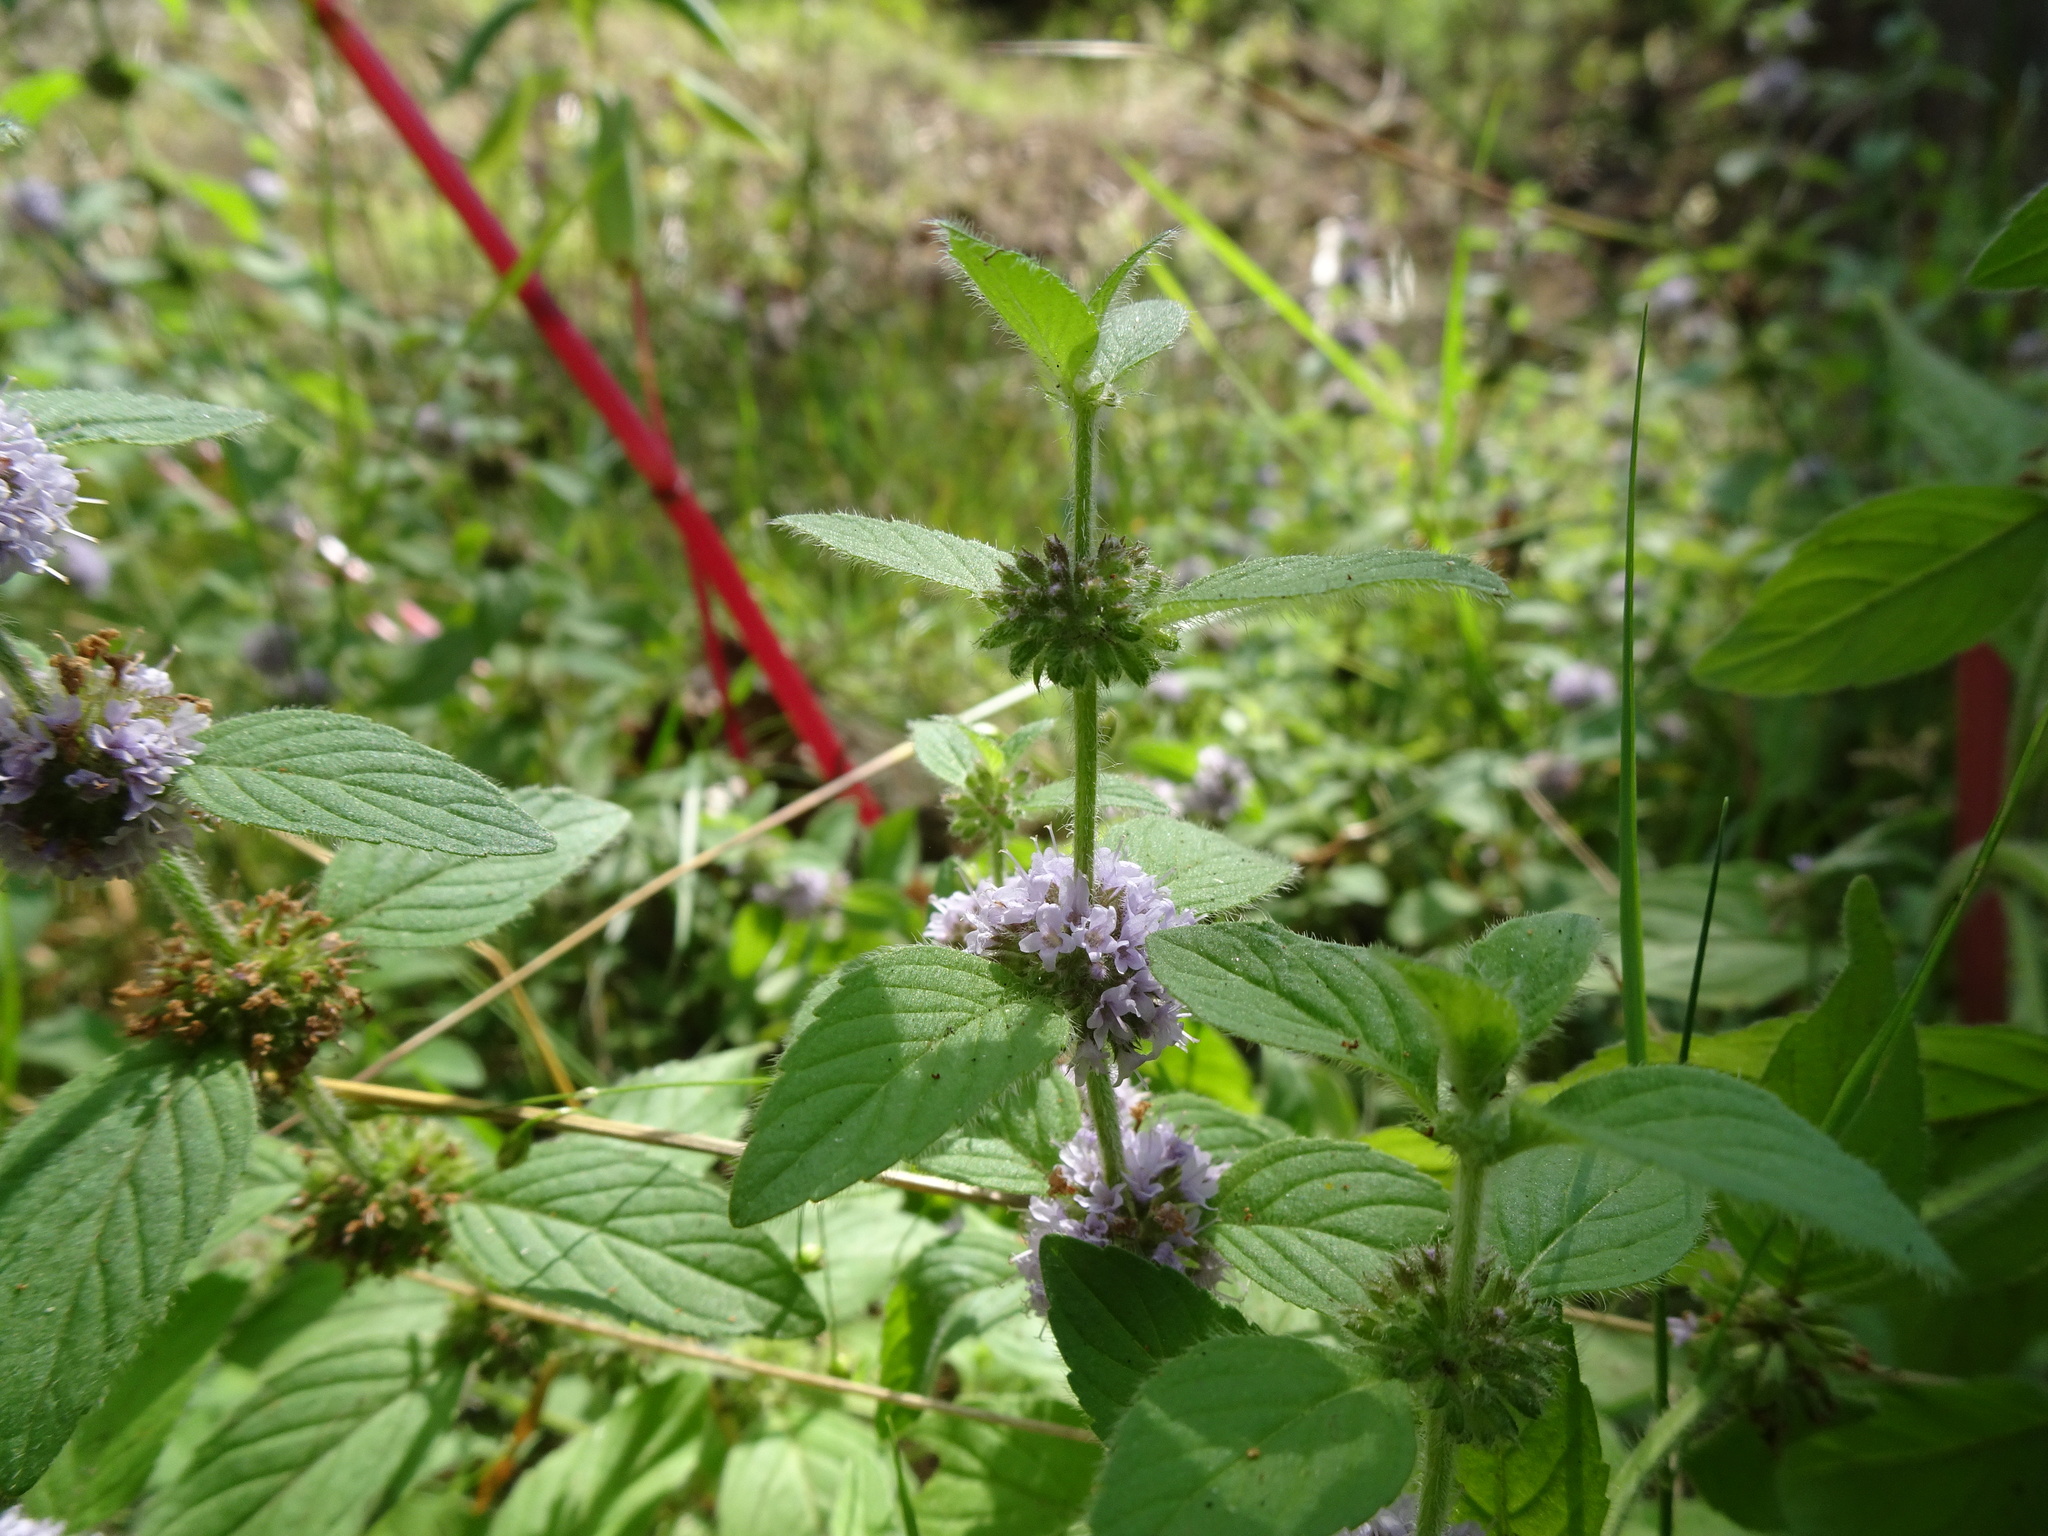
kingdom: Plantae
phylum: Tracheophyta
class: Magnoliopsida
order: Lamiales
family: Lamiaceae
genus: Mentha
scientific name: Mentha arvensis
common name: Corn mint
